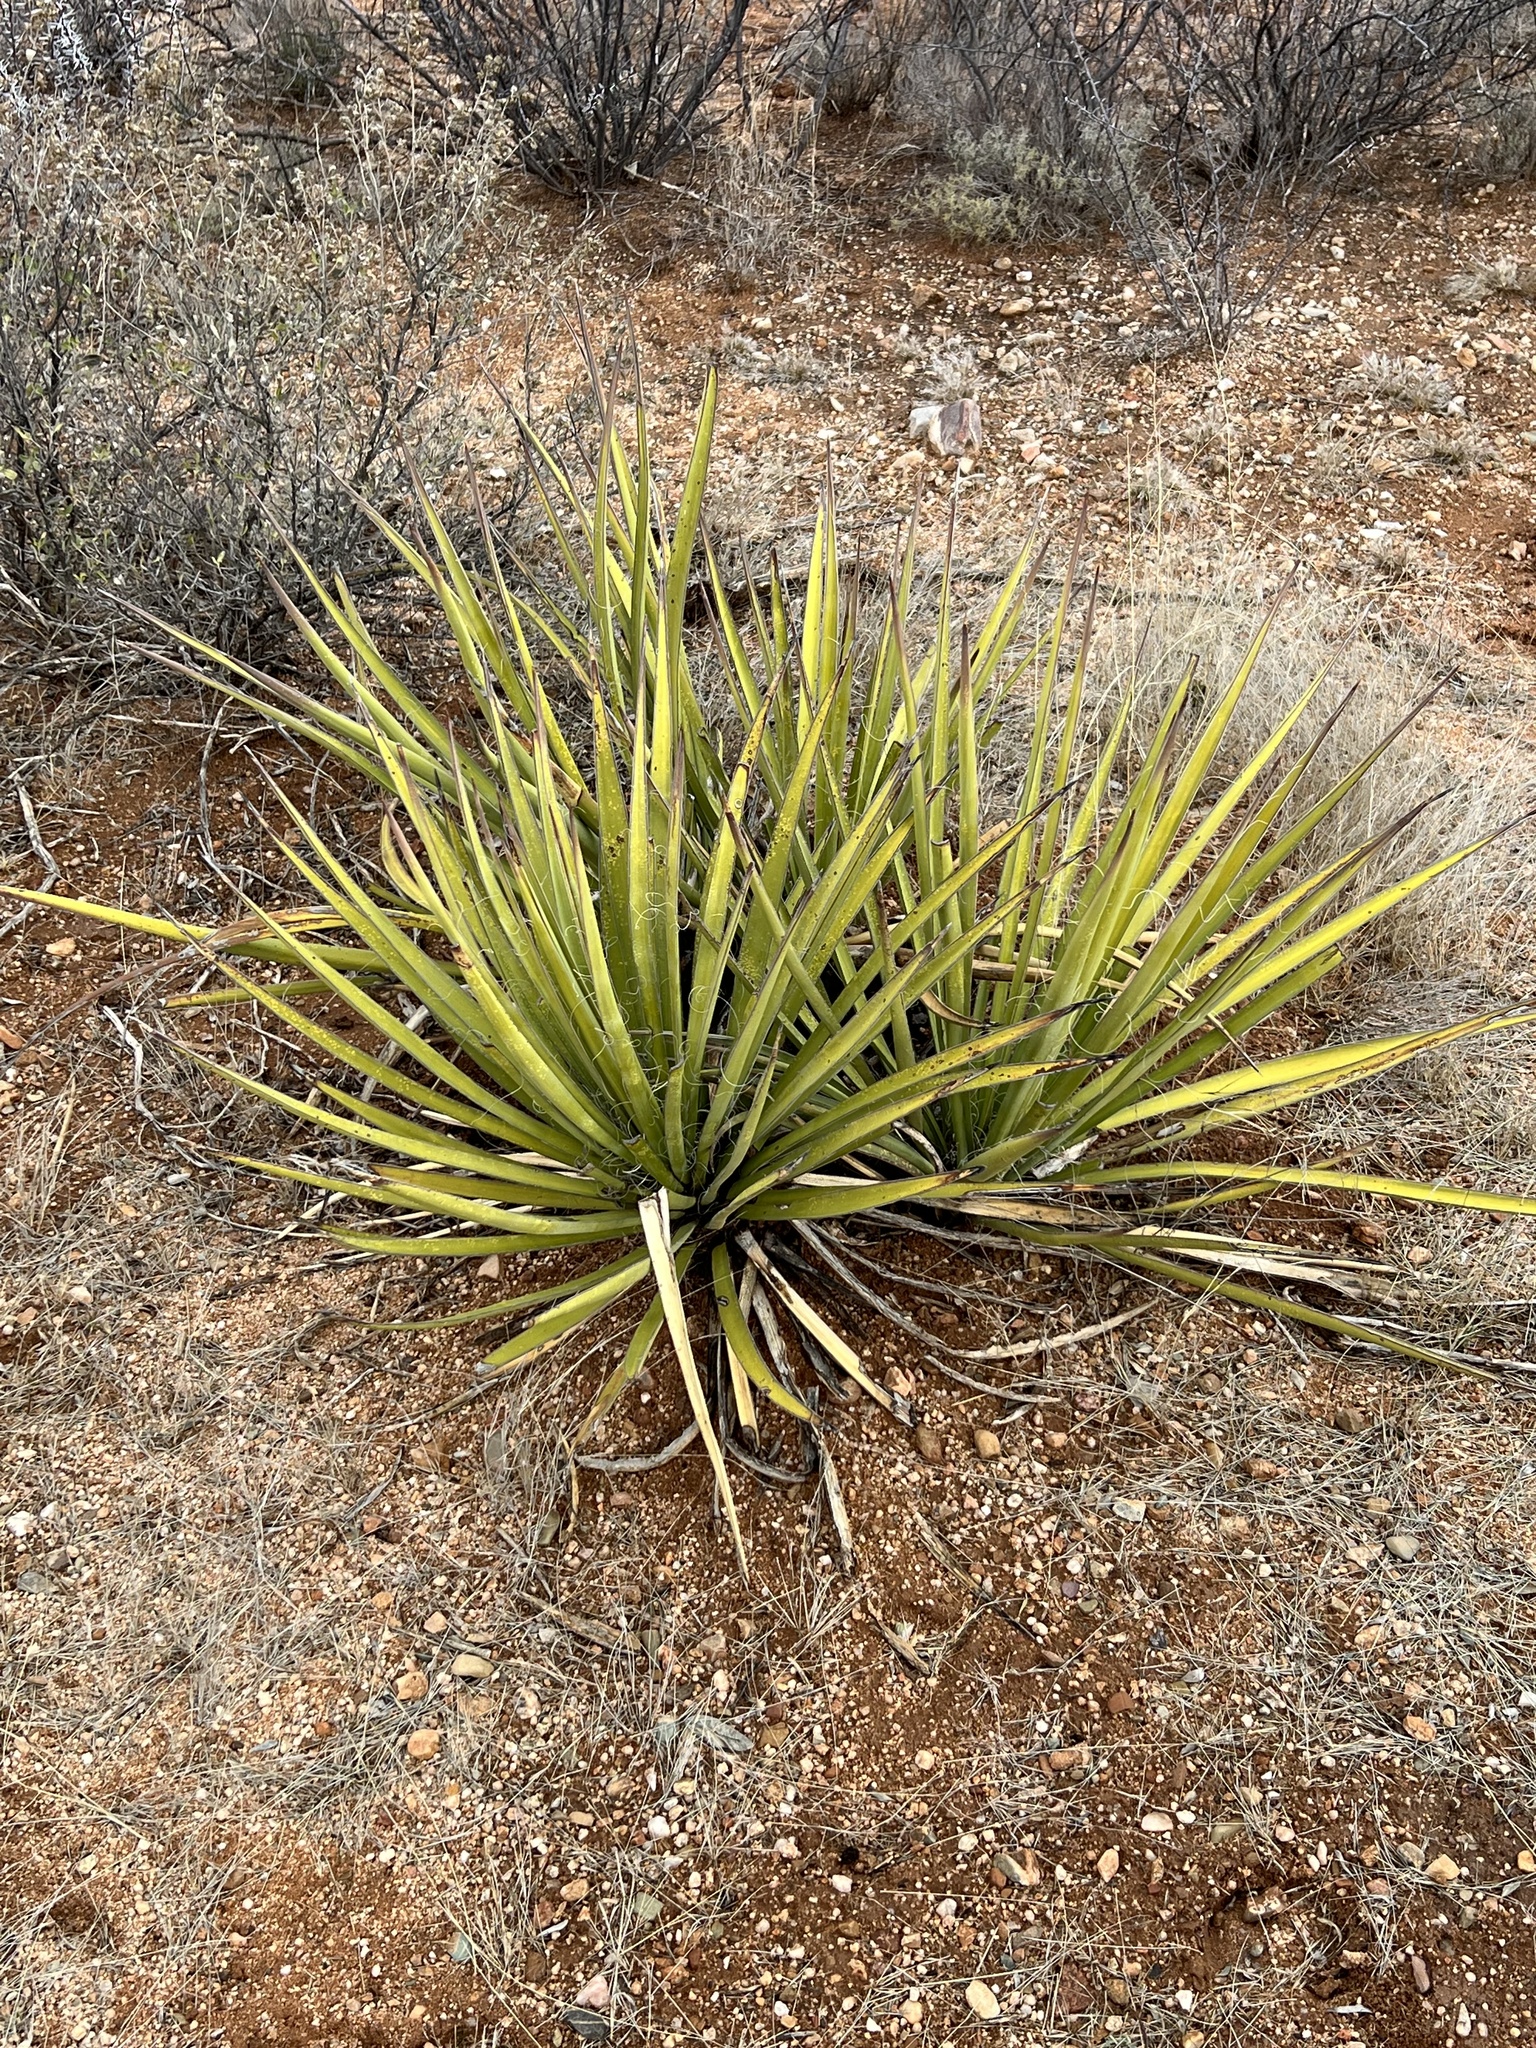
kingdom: Plantae
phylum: Tracheophyta
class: Liliopsida
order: Asparagales
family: Asparagaceae
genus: Yucca
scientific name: Yucca baccata
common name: Banana yucca
